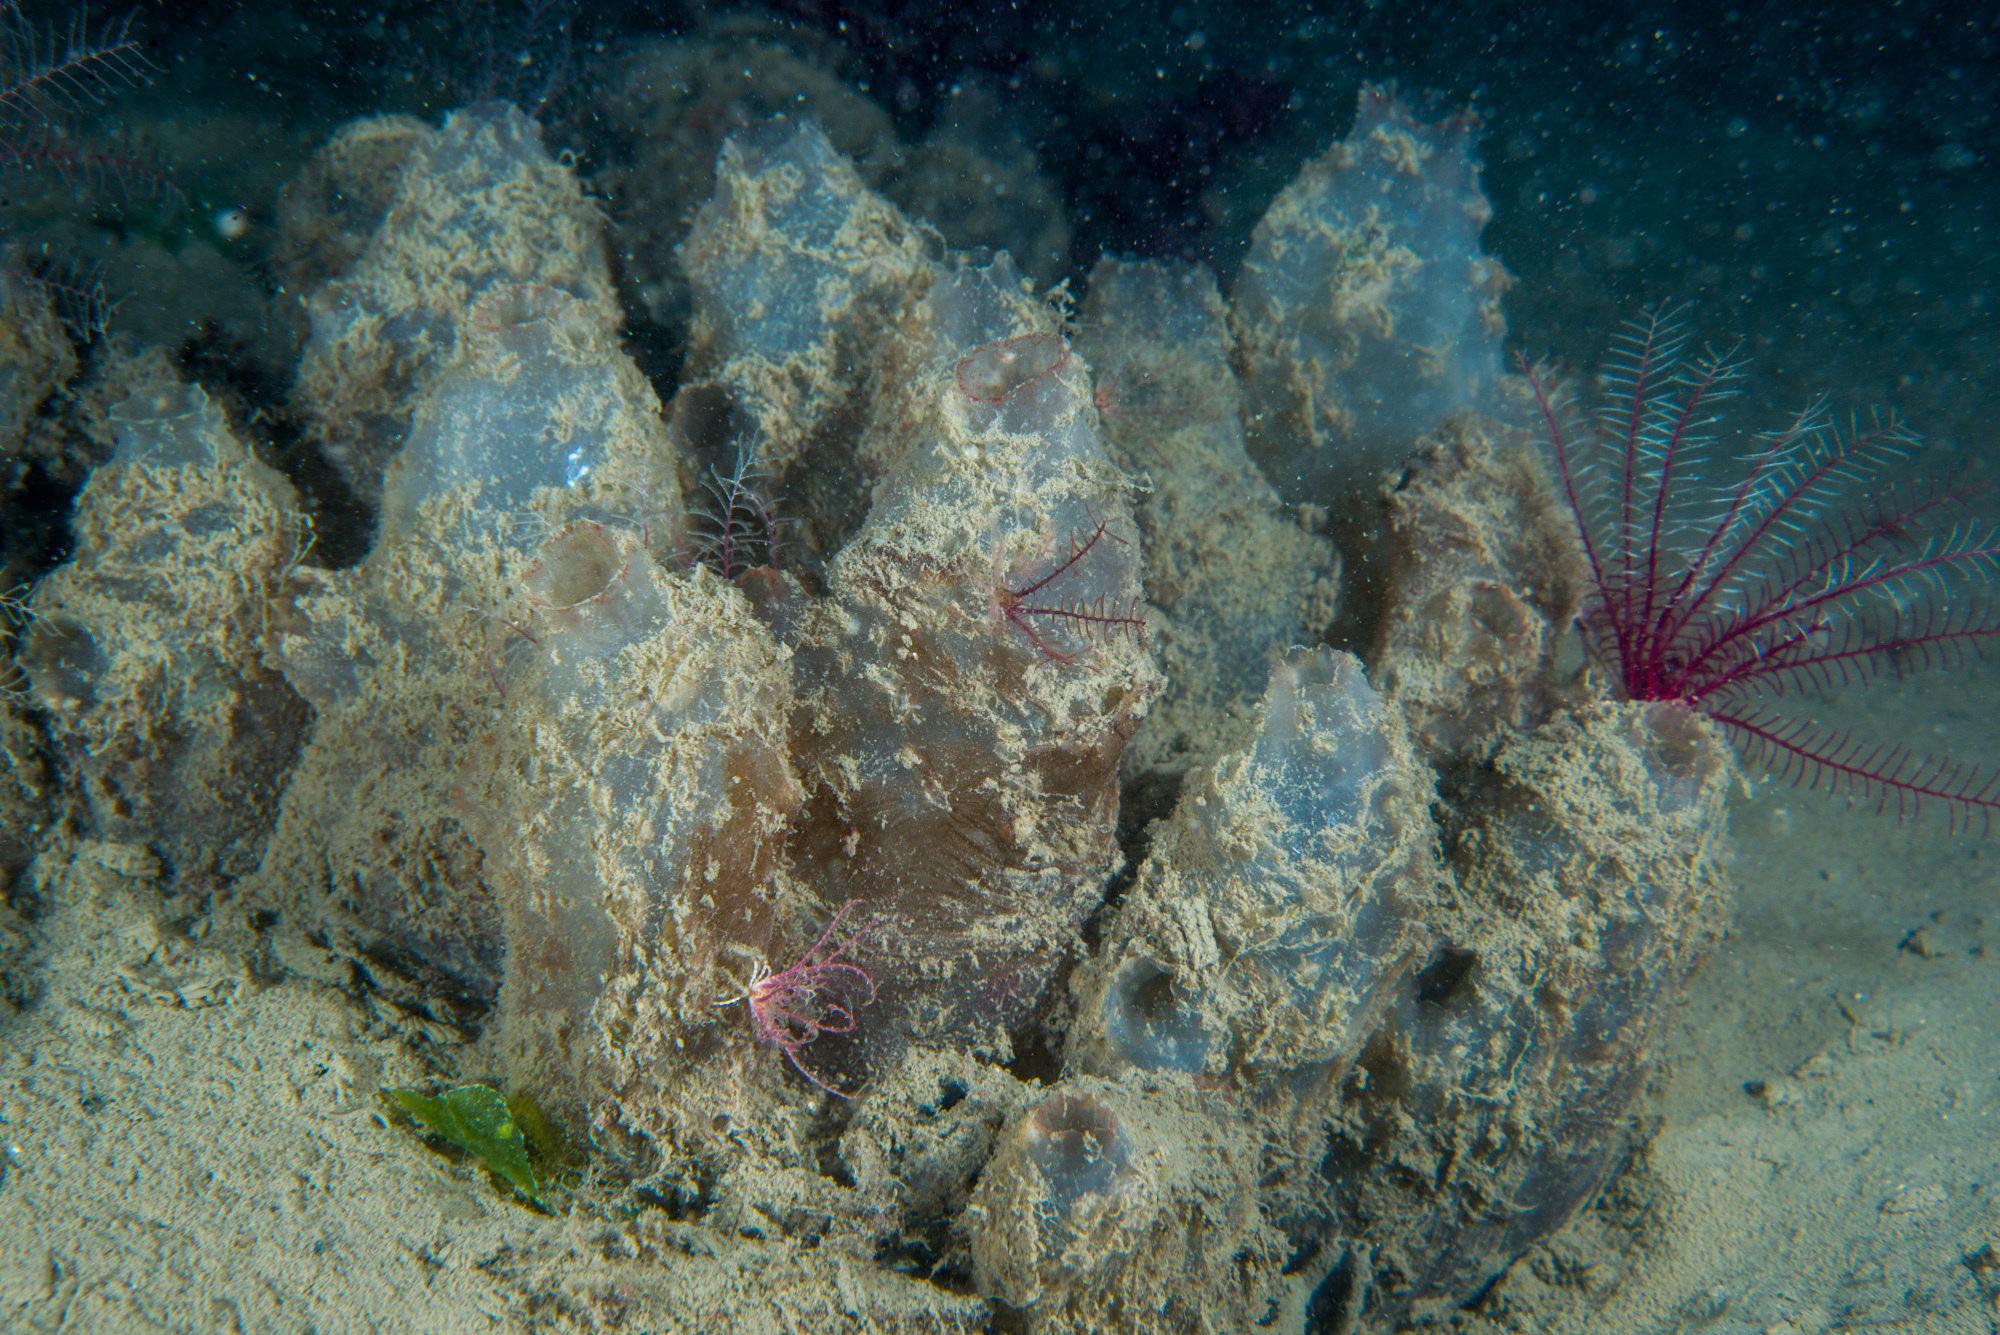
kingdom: Animalia
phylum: Chordata
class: Ascidiacea
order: Phlebobranchia
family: Ascidiidae
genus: Ascidiella
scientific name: Ascidiella aspersa
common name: Dirty sea-squirt
